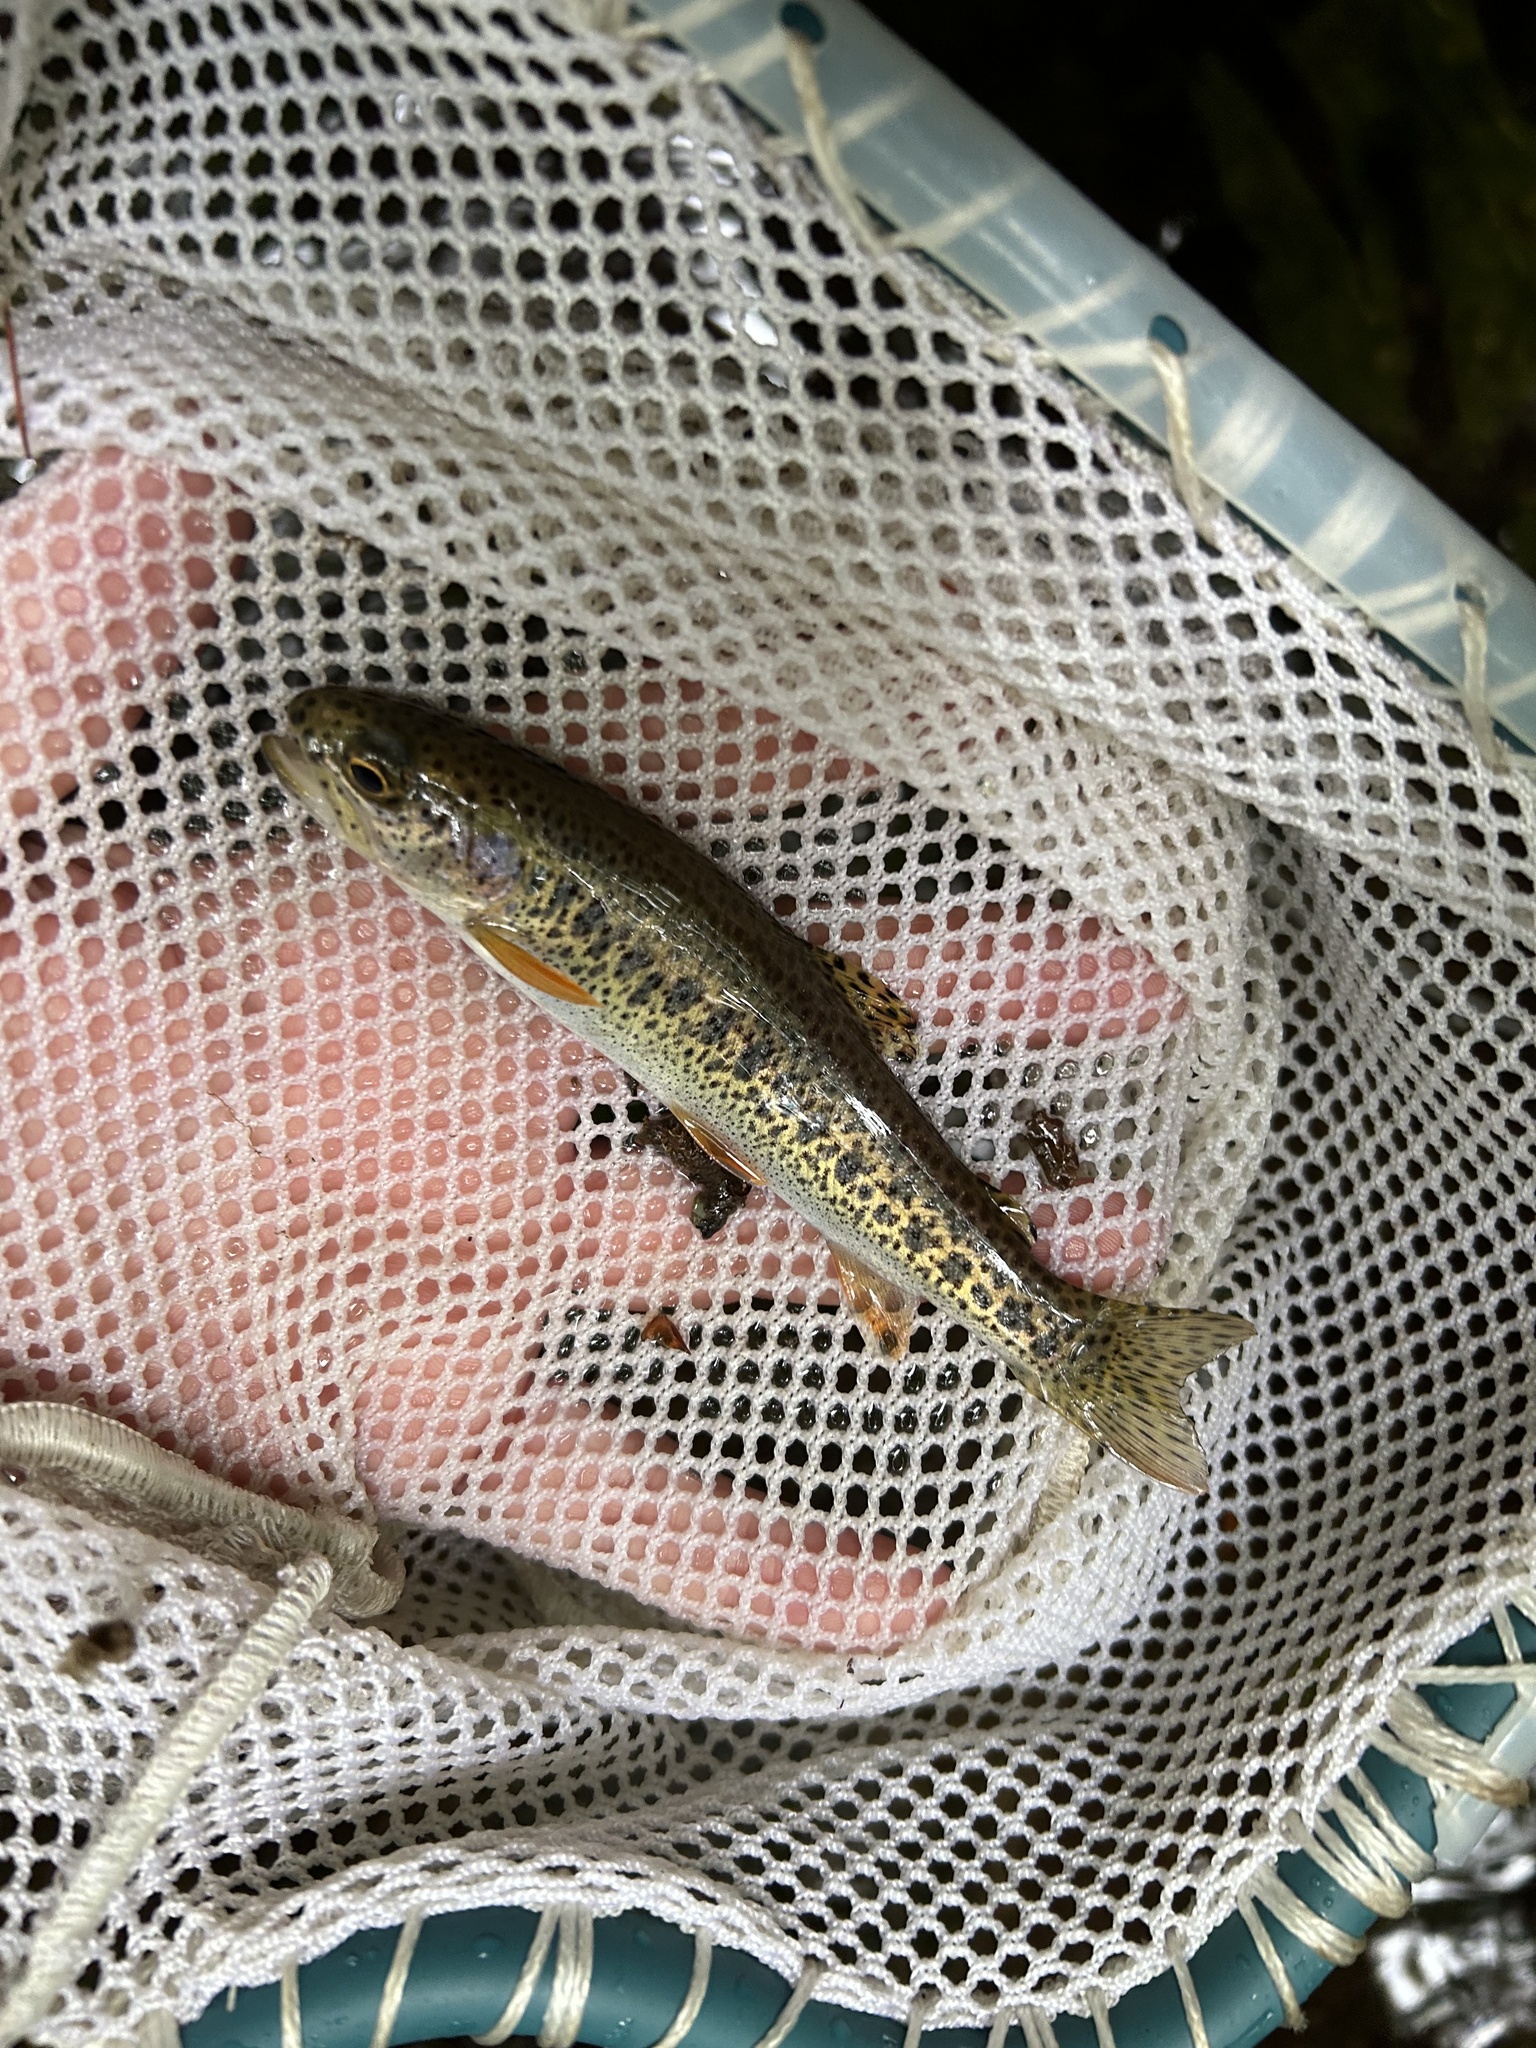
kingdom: Animalia
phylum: Chordata
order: Salmoniformes
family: Salmonidae
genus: Oncorhynchus
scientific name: Oncorhynchus clarkii
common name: Cutthroat trout
